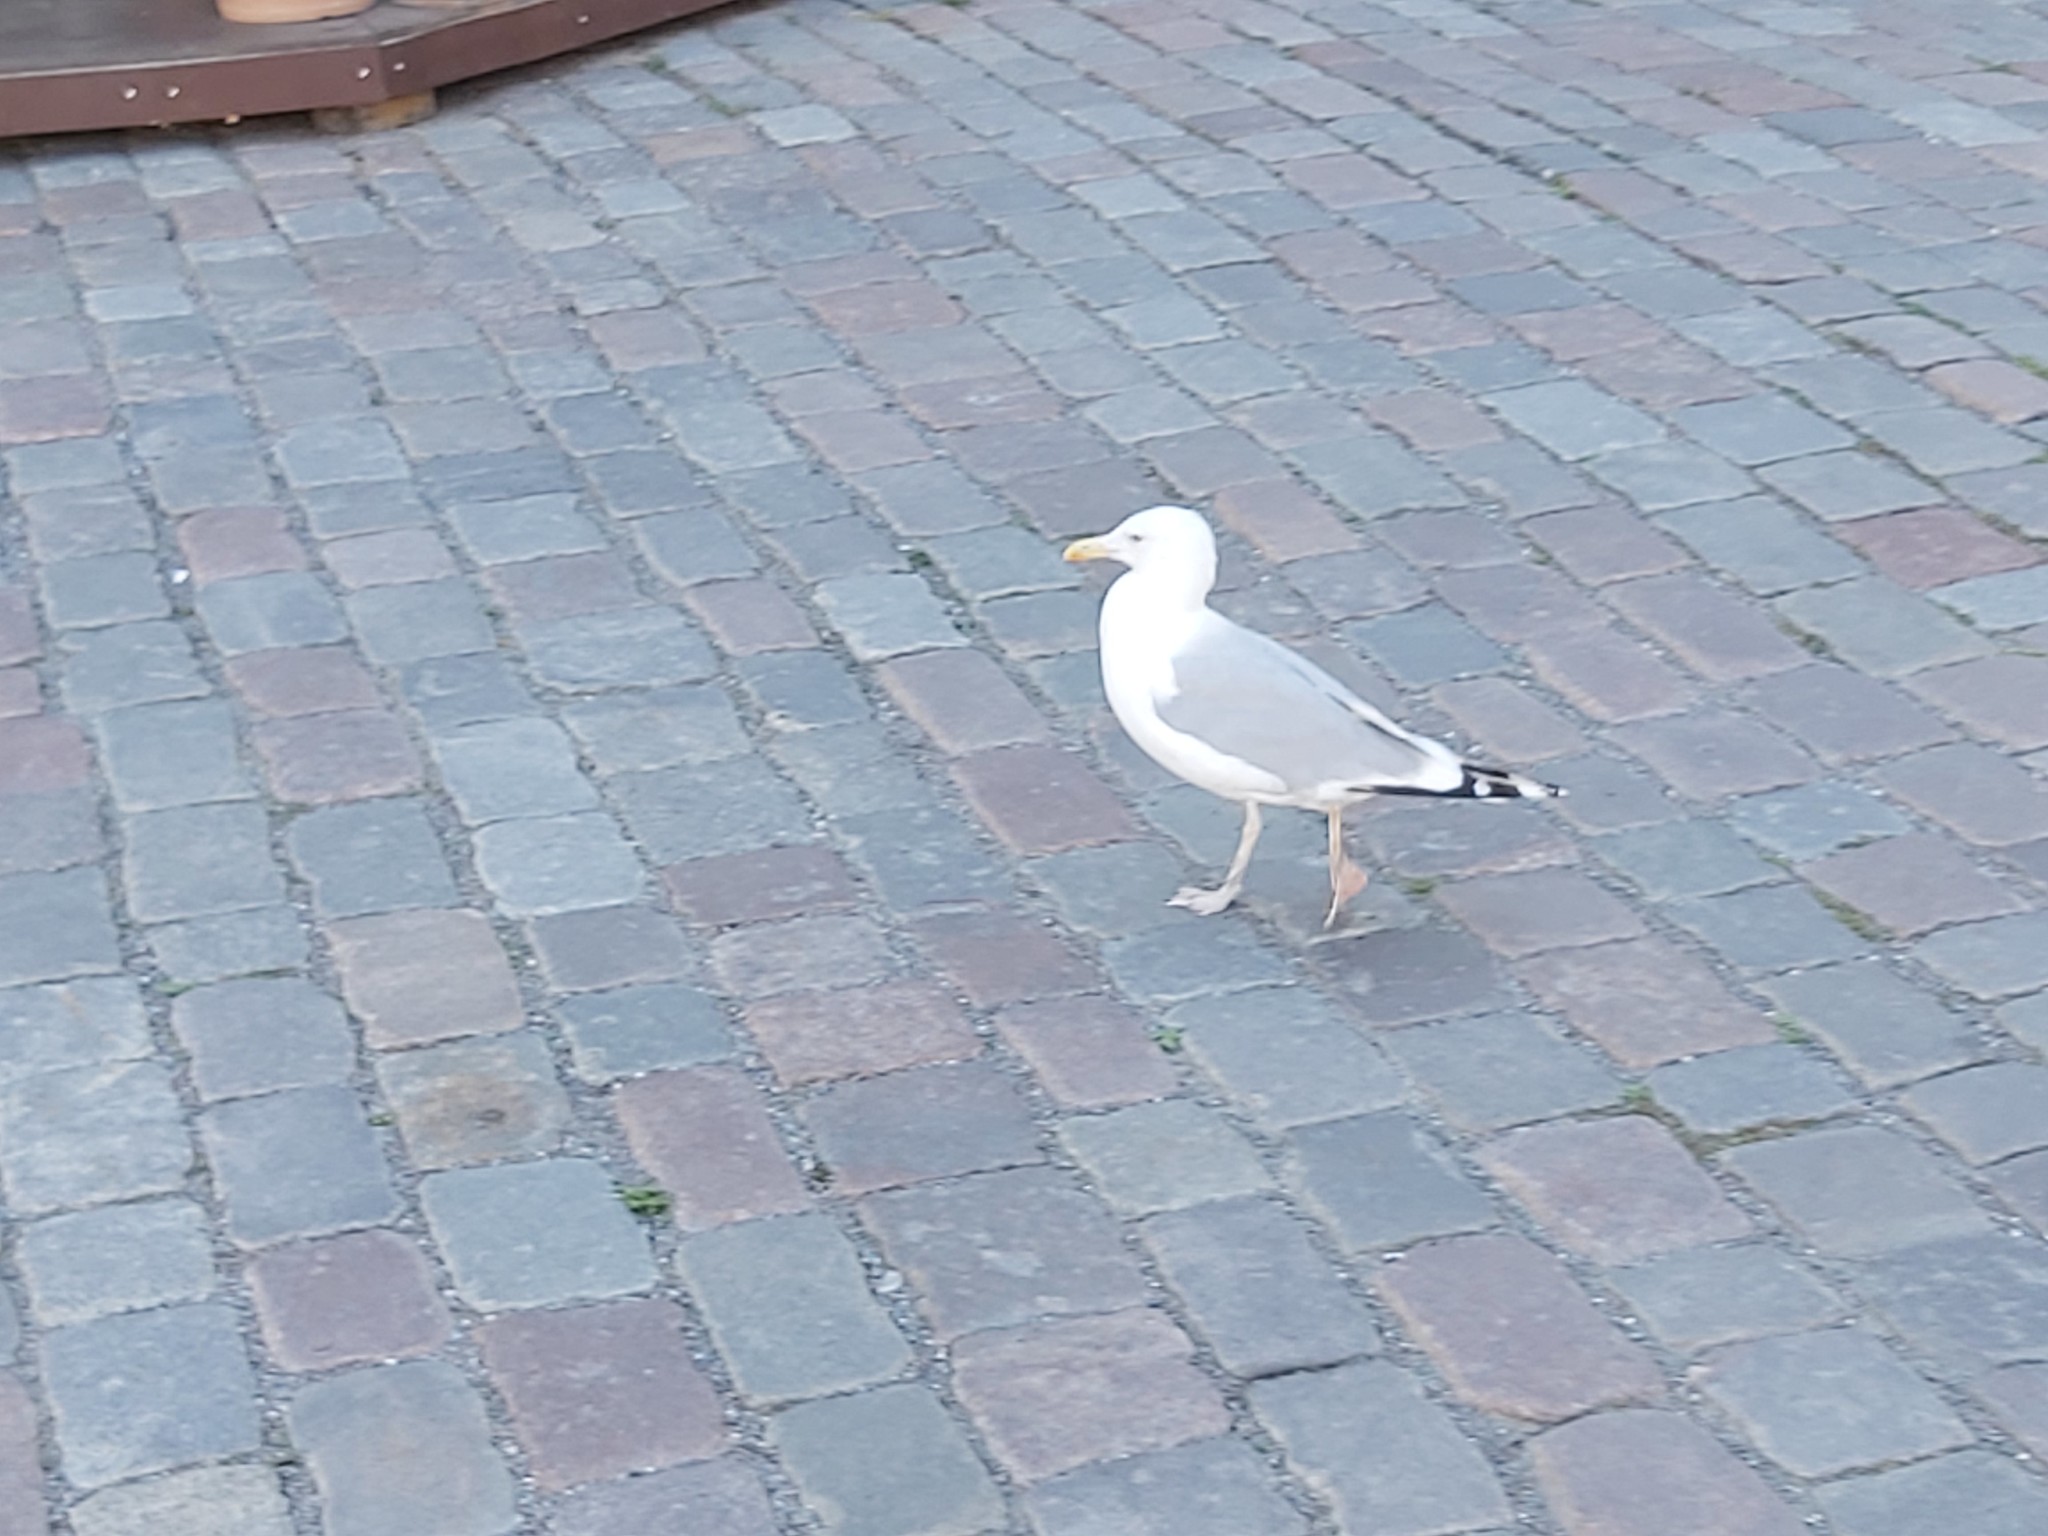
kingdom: Animalia
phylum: Chordata
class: Aves
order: Charadriiformes
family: Laridae
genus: Larus
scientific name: Larus argentatus
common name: Herring gull
